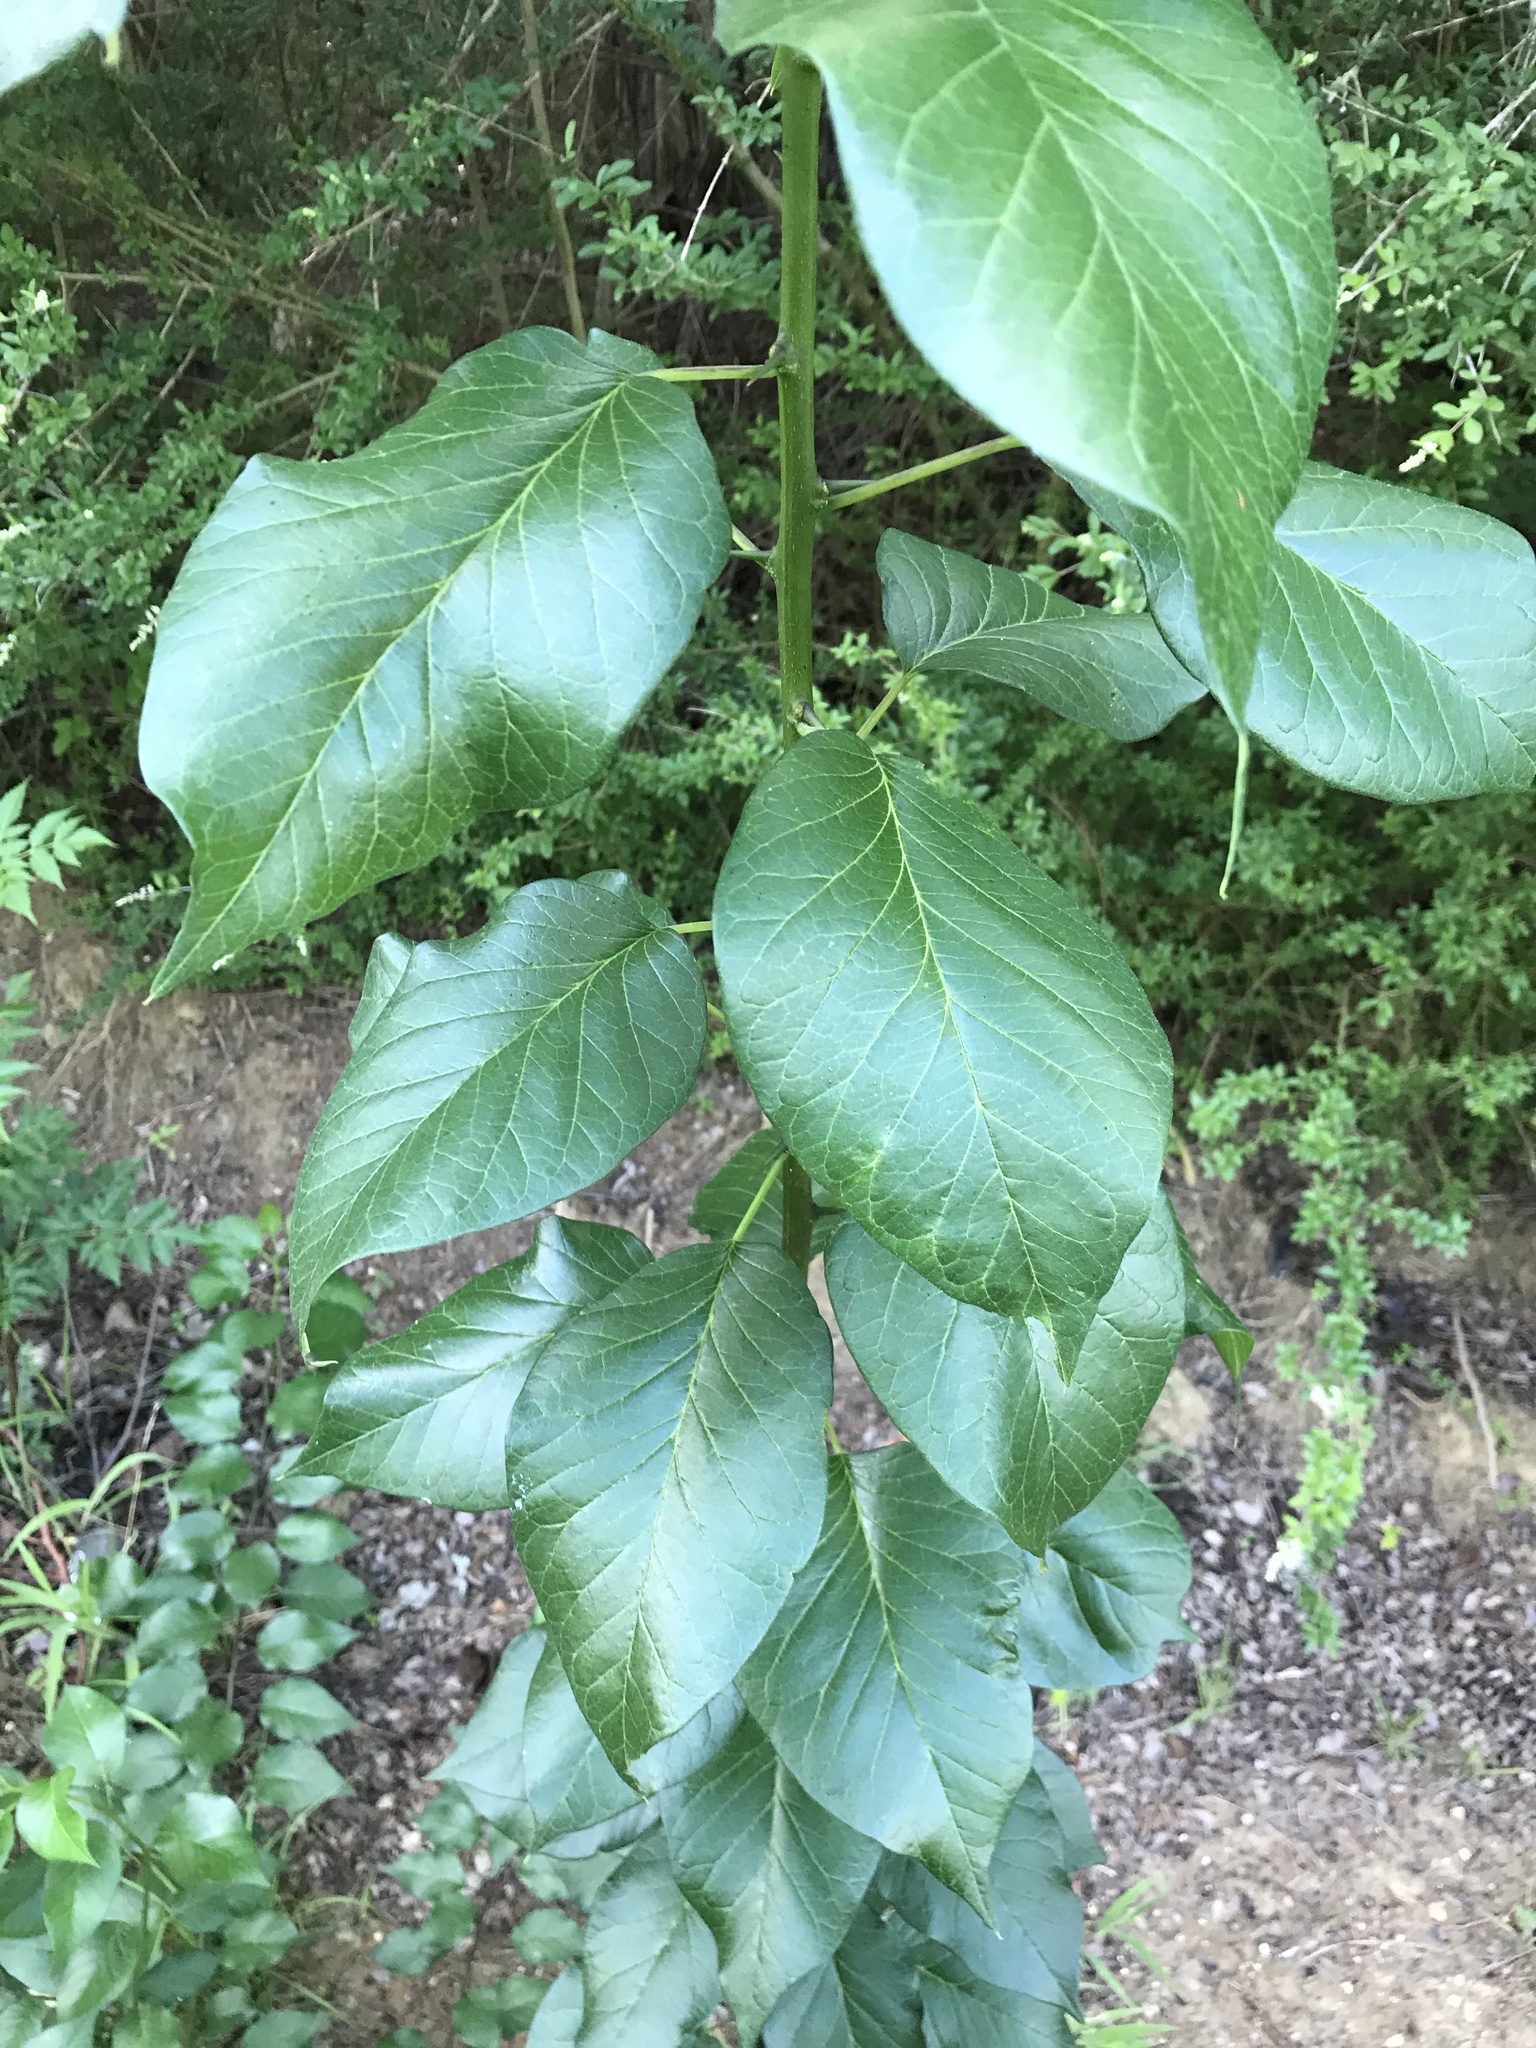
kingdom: Plantae
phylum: Tracheophyta
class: Magnoliopsida
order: Rosales
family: Moraceae
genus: Maclura
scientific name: Maclura pomifera
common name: Osage-orange
